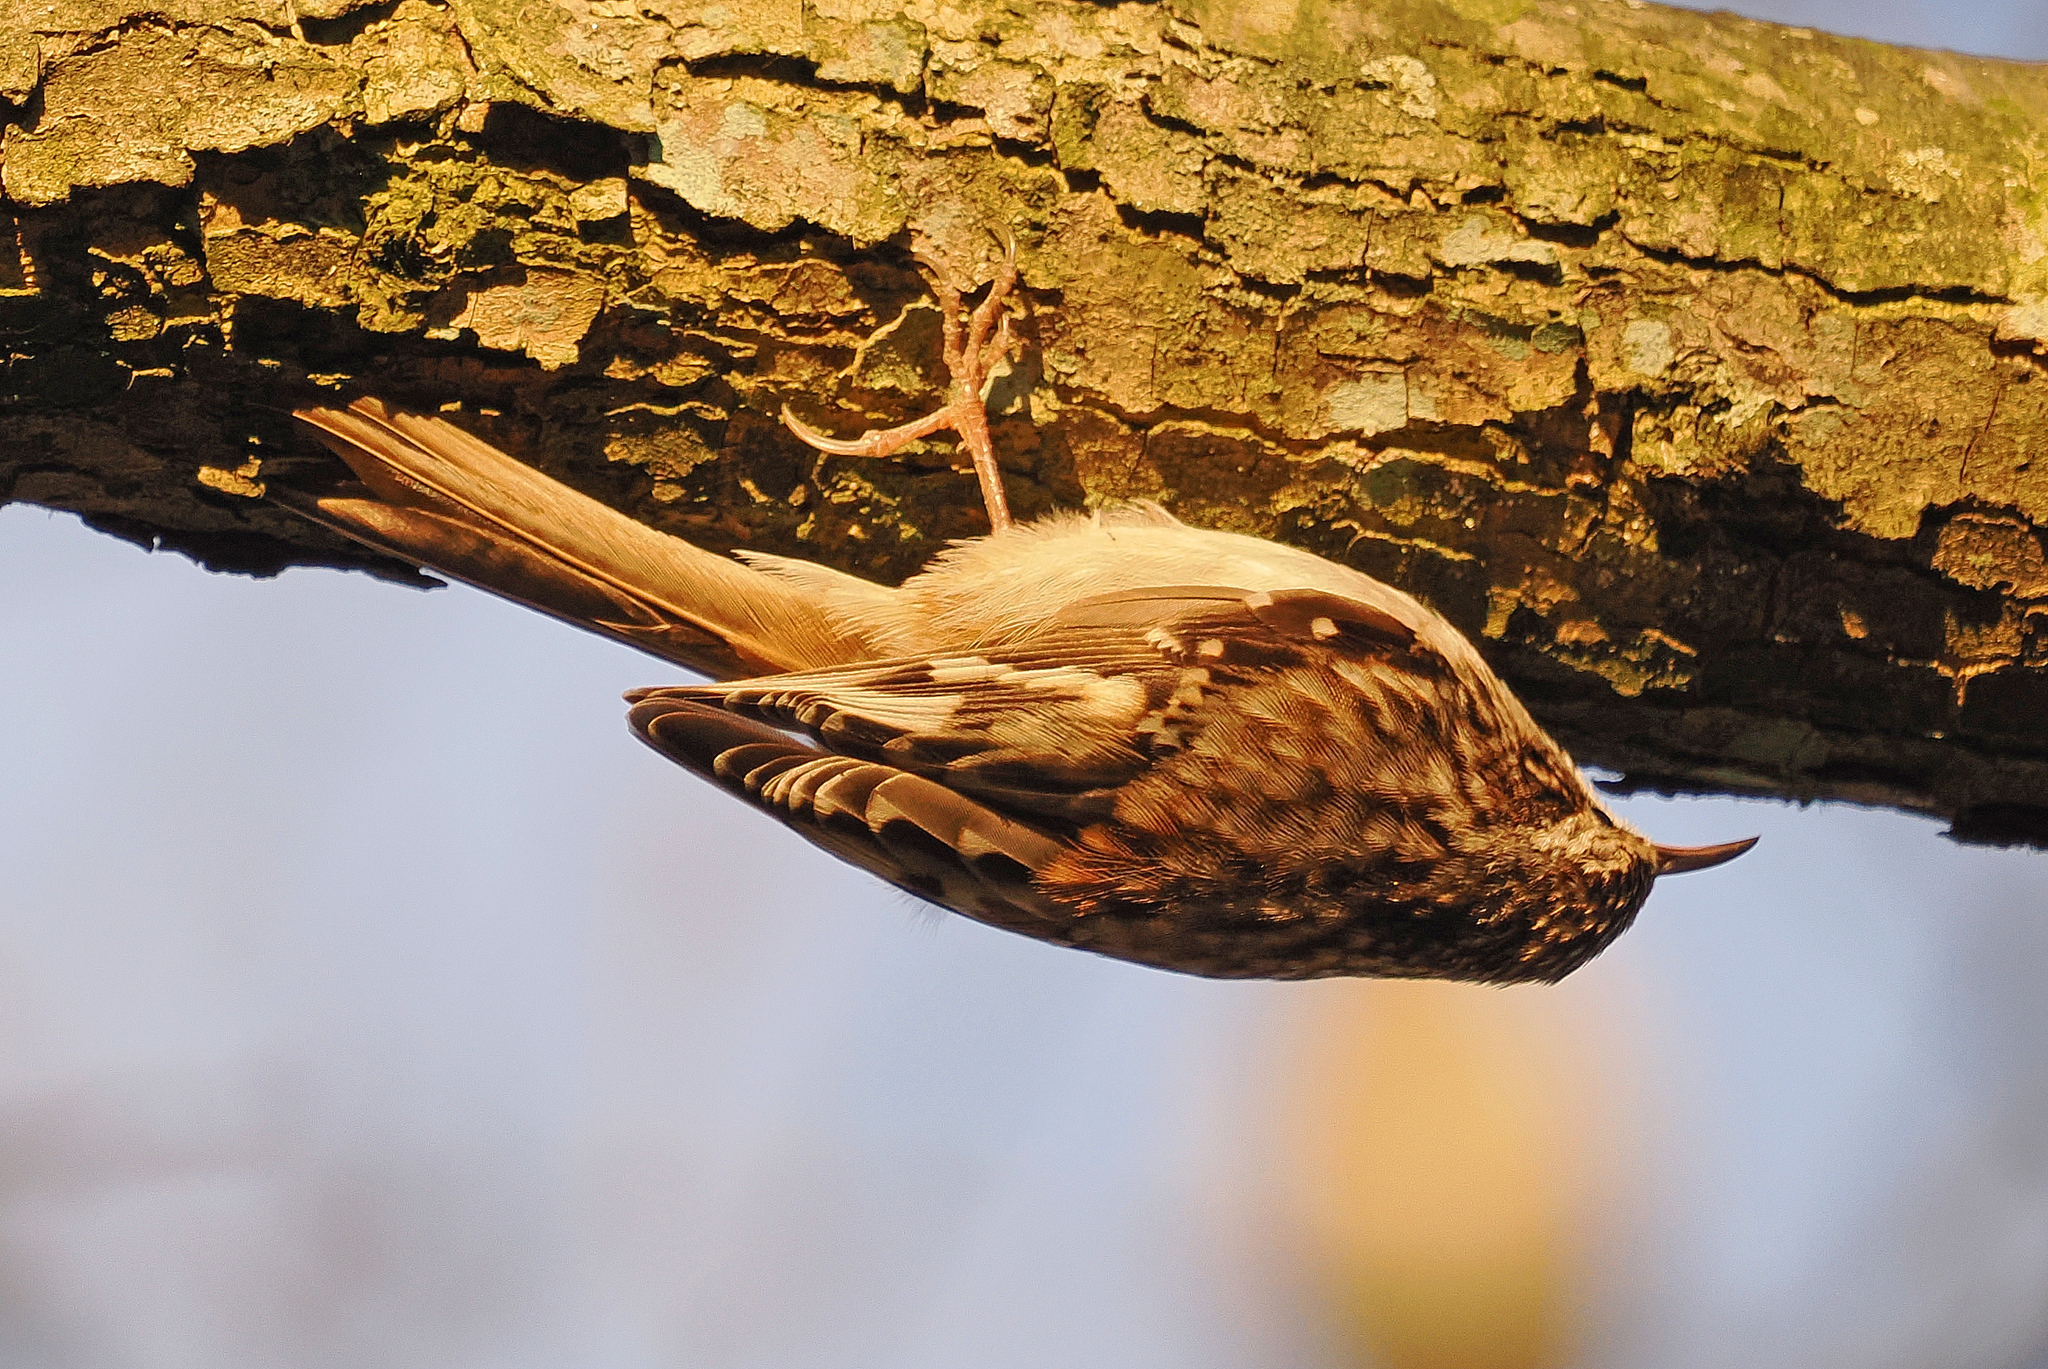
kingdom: Animalia
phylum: Chordata
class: Aves
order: Passeriformes
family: Certhiidae
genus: Certhia
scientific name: Certhia americana
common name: Brown creeper
